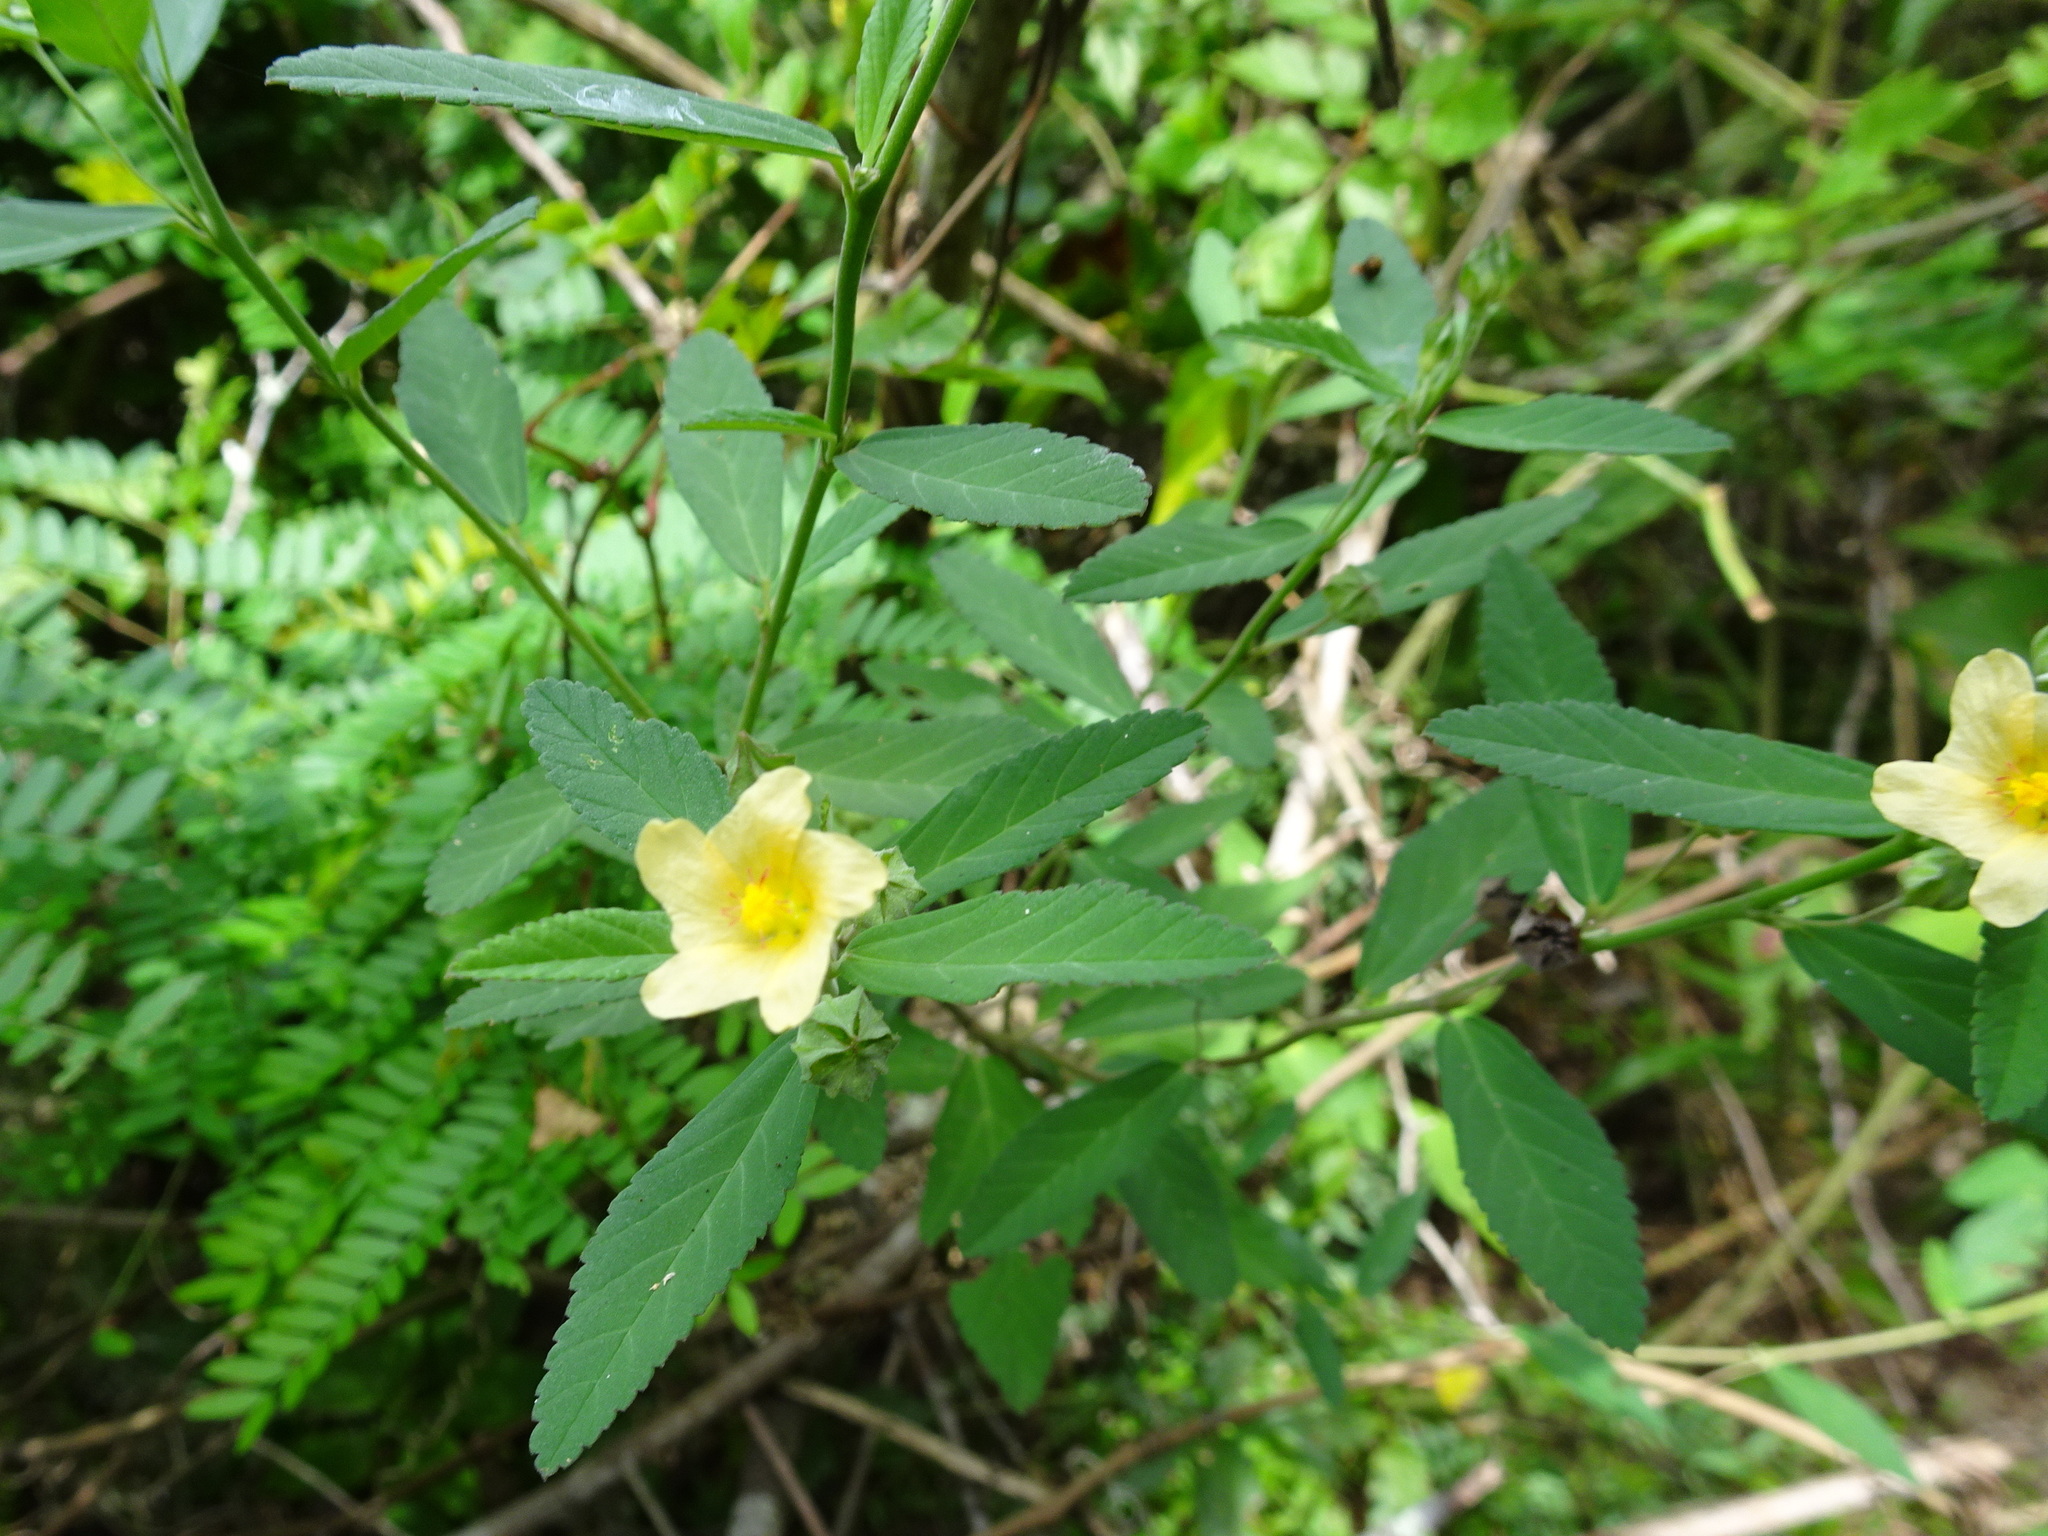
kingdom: Plantae
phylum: Tracheophyta
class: Magnoliopsida
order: Malvales
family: Malvaceae
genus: Sida
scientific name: Sida rhombifolia
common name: Queensland-hemp
